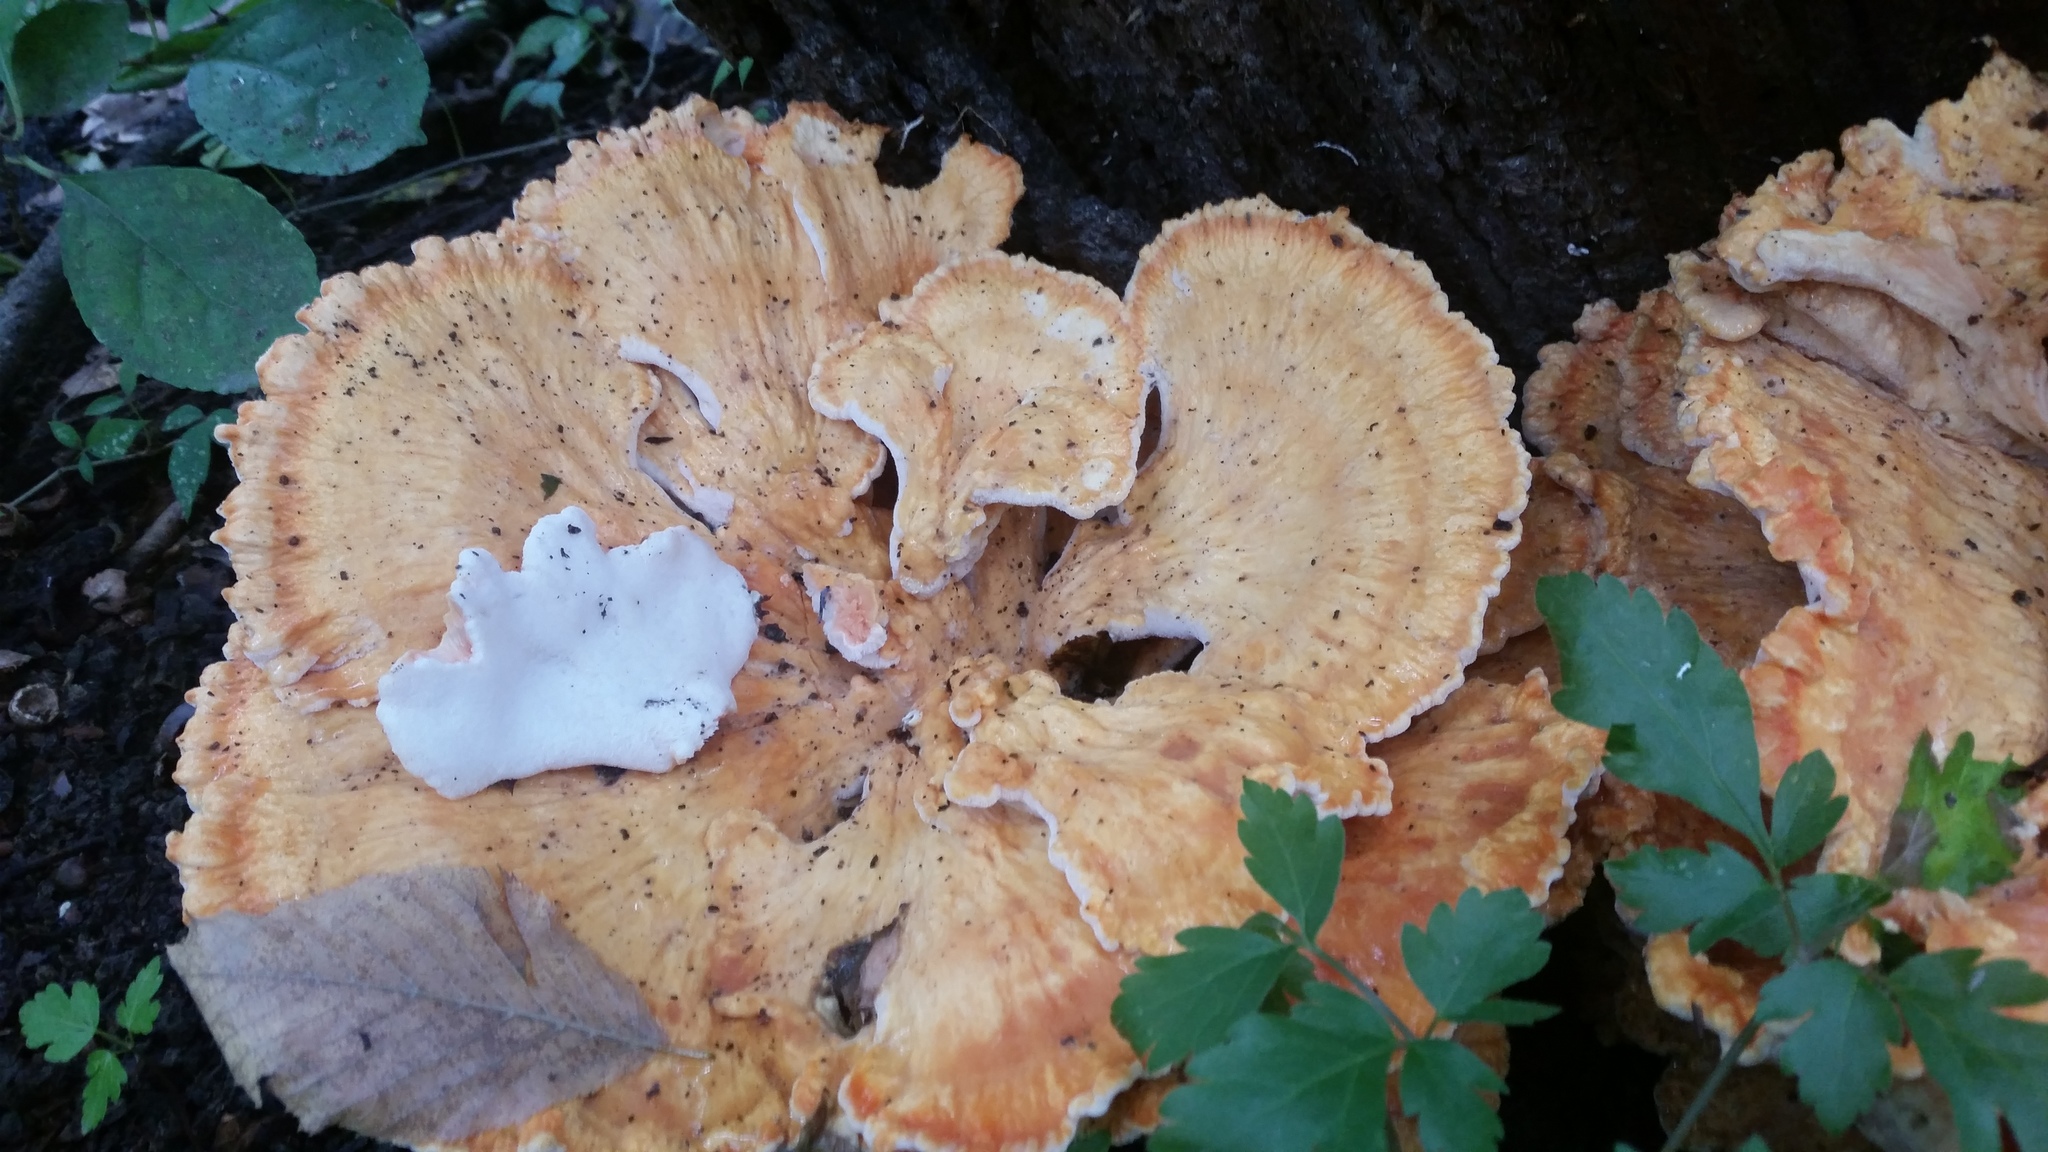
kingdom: Fungi
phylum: Basidiomycota
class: Agaricomycetes
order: Polyporales
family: Laetiporaceae
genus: Laetiporus
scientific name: Laetiporus sulphureus
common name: Chicken of the woods
